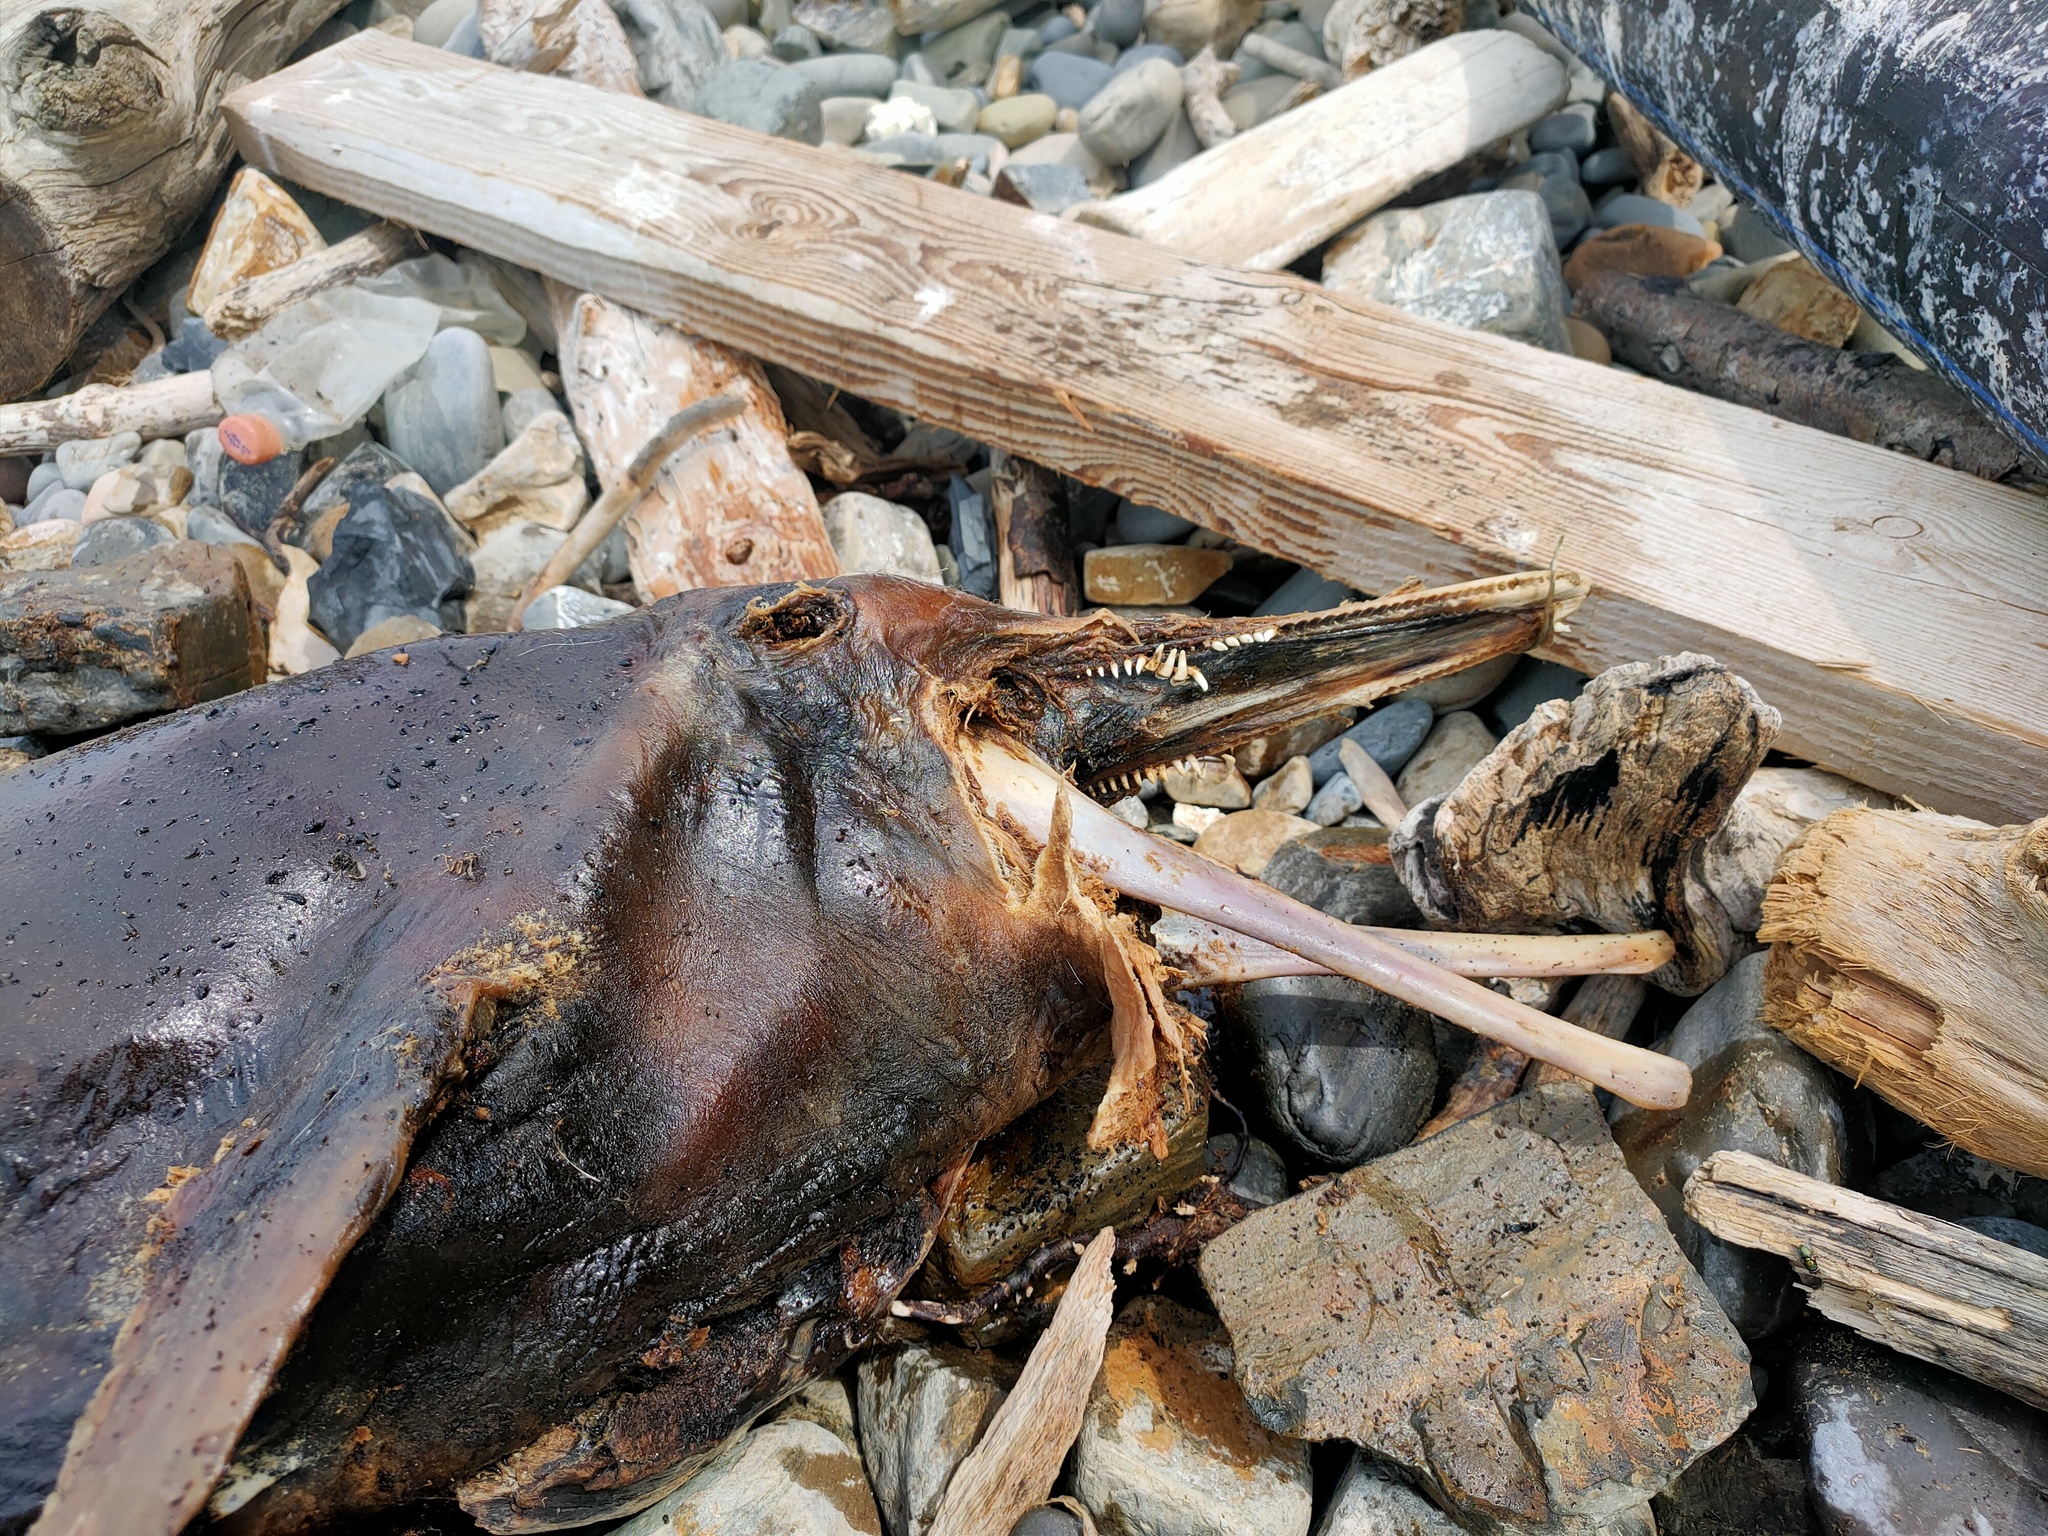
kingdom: Animalia
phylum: Chordata
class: Mammalia
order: Cetacea
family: Delphinidae
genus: Delphinus
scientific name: Delphinus delphis
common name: Common dolphin
